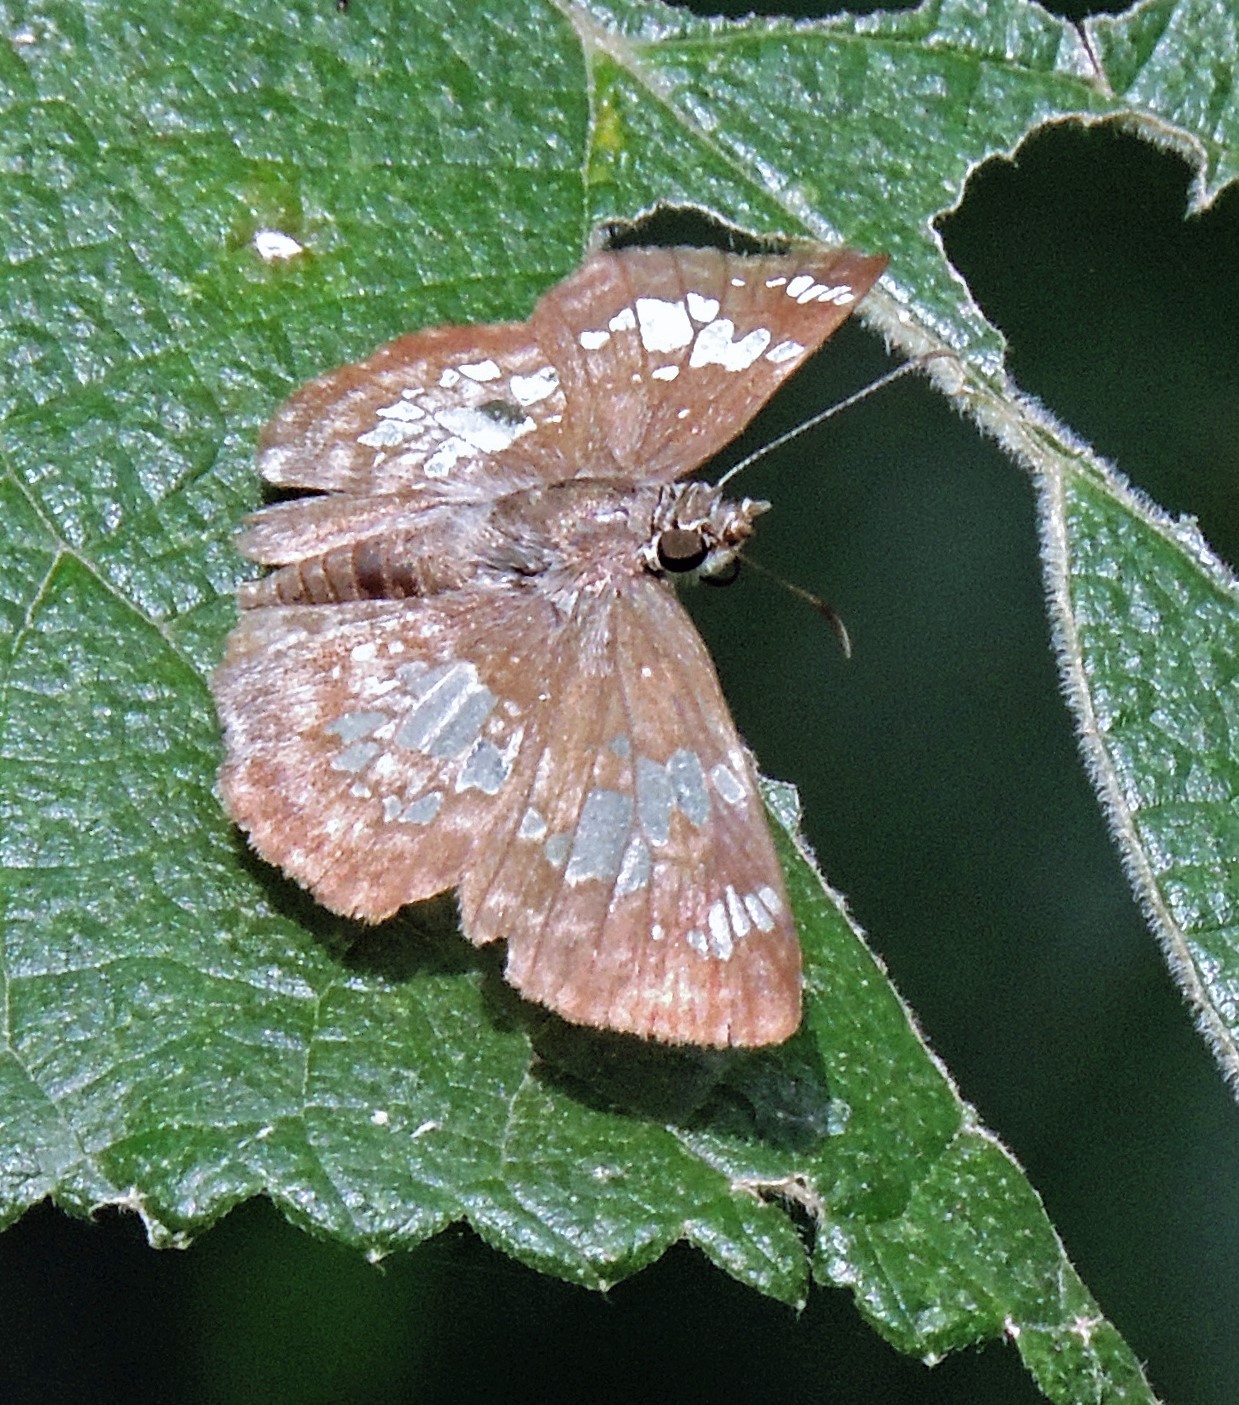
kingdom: Animalia
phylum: Arthropoda
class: Insecta
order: Lepidoptera
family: Hesperiidae
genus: Xenophanes
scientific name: Xenophanes tryxus
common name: Glassy-winged skipper
